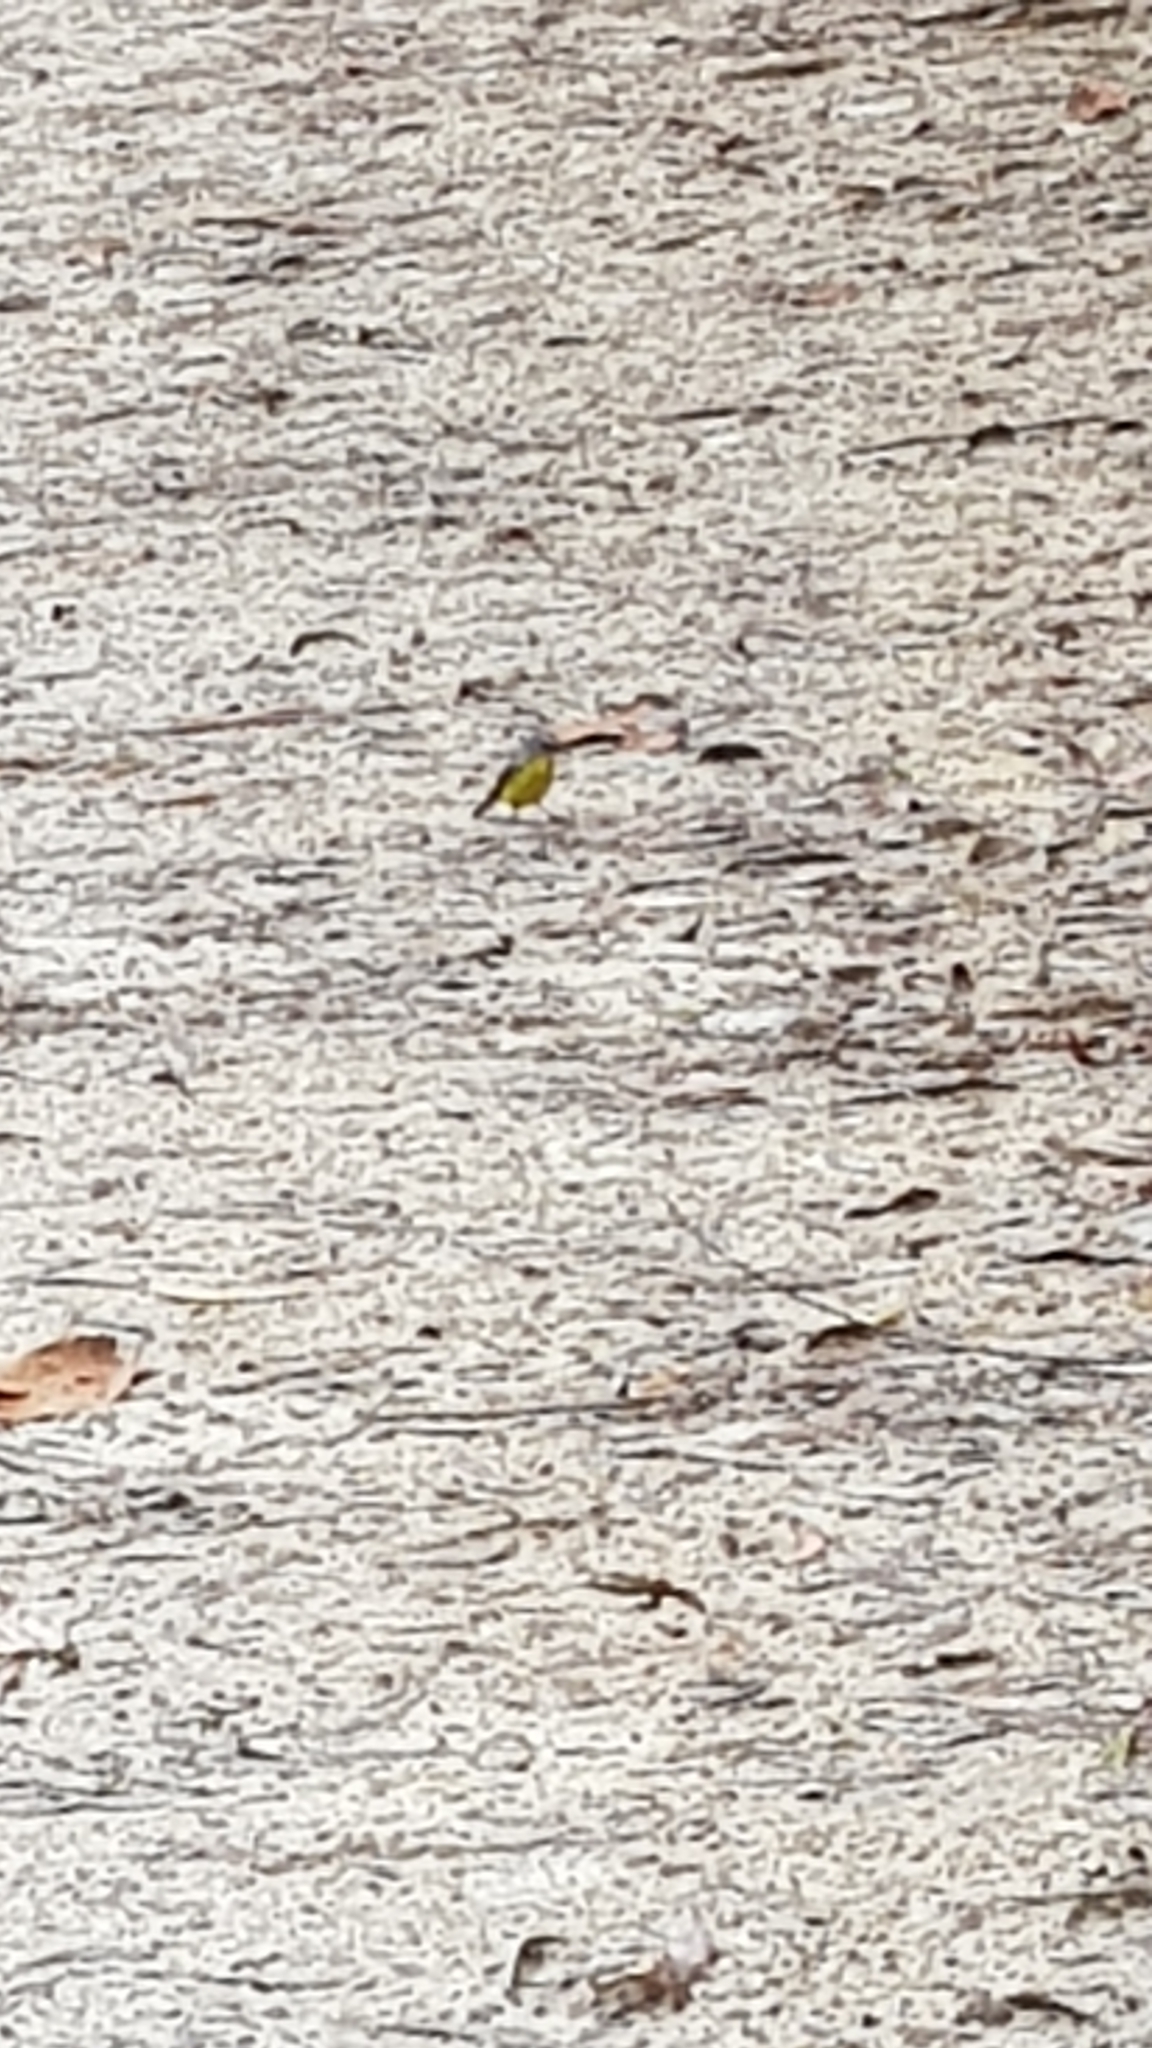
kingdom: Animalia
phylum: Chordata
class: Aves
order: Passeriformes
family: Petroicidae
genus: Eopsaltria
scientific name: Eopsaltria australis
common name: Eastern yellow robin
